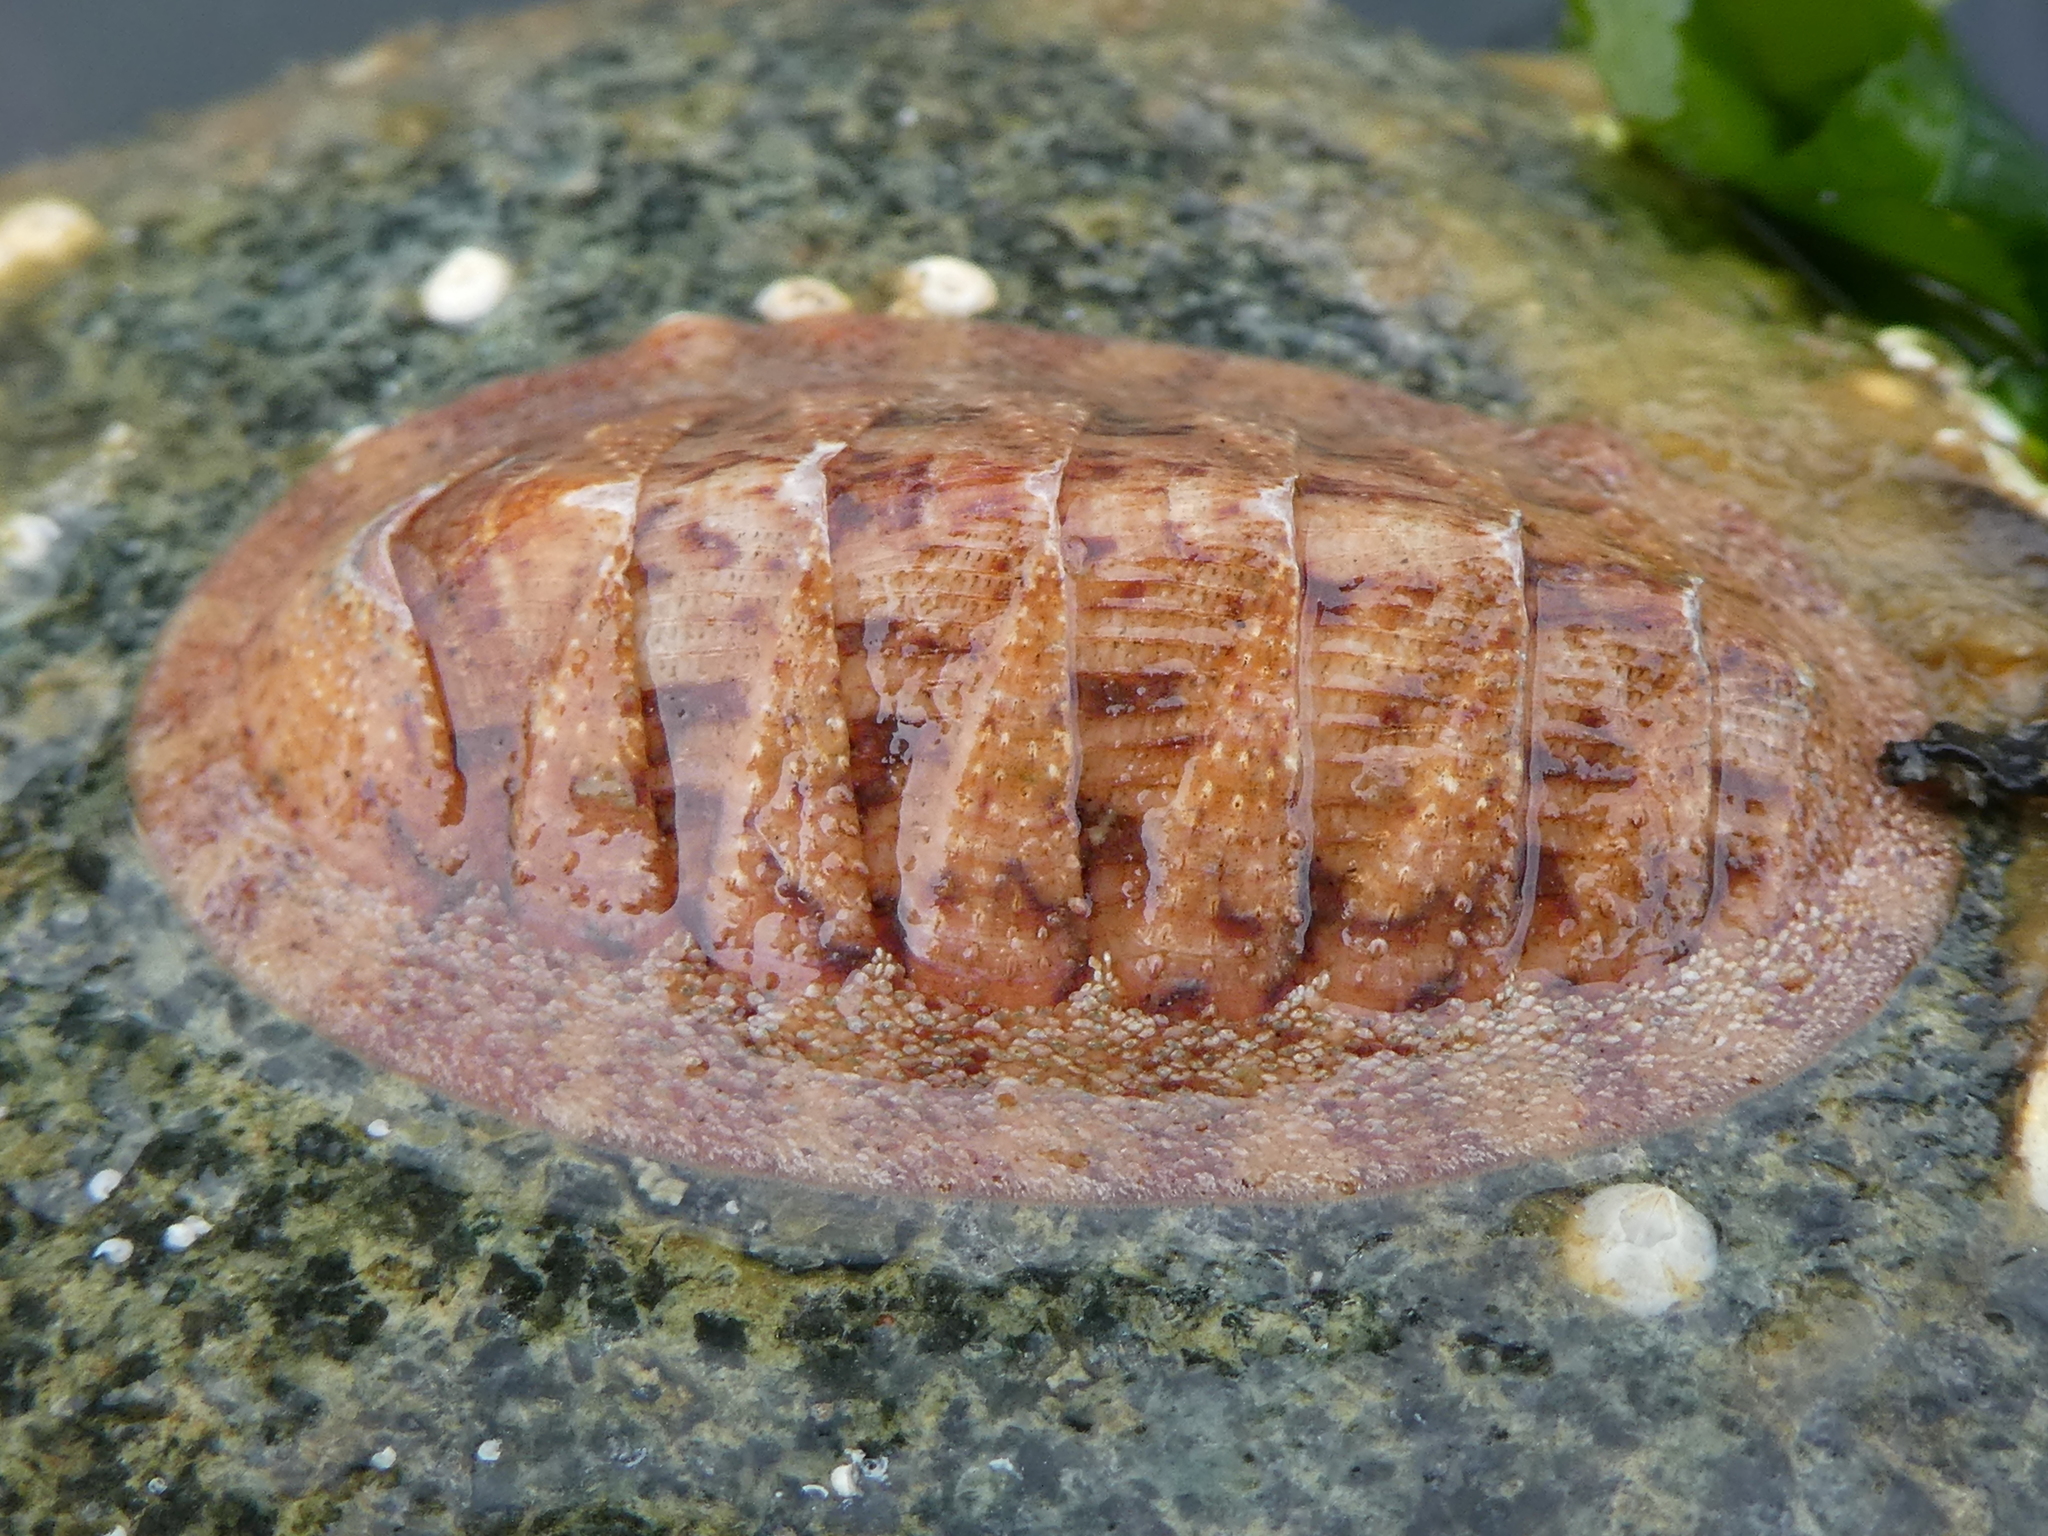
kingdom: Animalia
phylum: Mollusca
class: Polyplacophora
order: Chitonida
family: Ischnochitonidae
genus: Lepidozona
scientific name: Lepidozona mertensii
